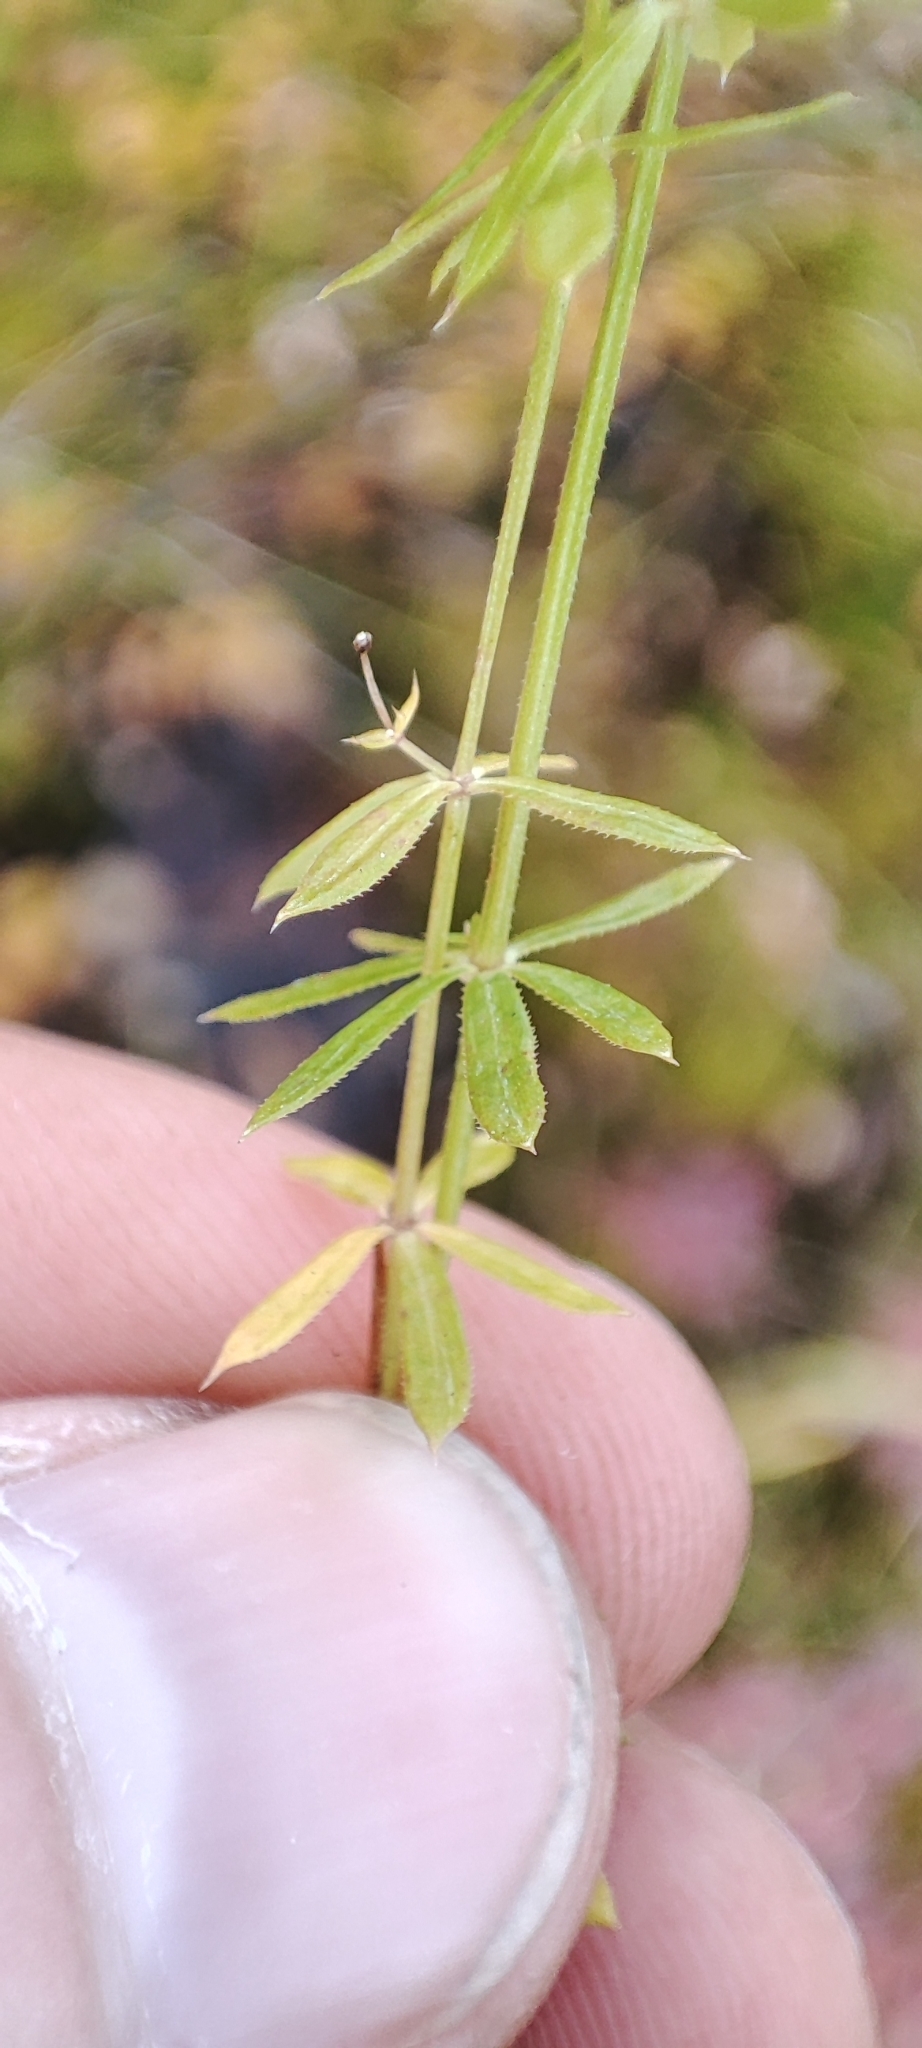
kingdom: Plantae
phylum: Tracheophyta
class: Magnoliopsida
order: Gentianales
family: Rubiaceae
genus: Galium
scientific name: Galium uliginosum
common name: Fen bedstraw
